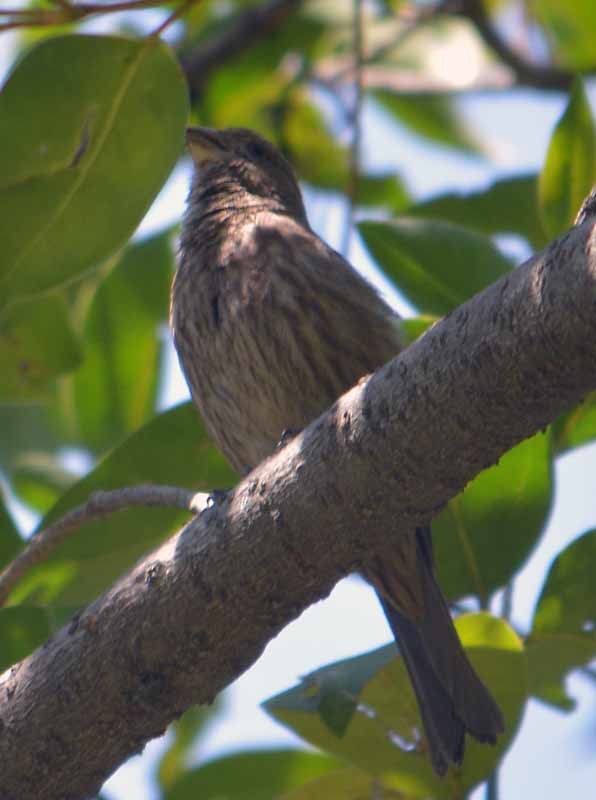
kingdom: Animalia
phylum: Chordata
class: Aves
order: Passeriformes
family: Fringillidae
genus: Haemorhous
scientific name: Haemorhous mexicanus
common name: House finch
